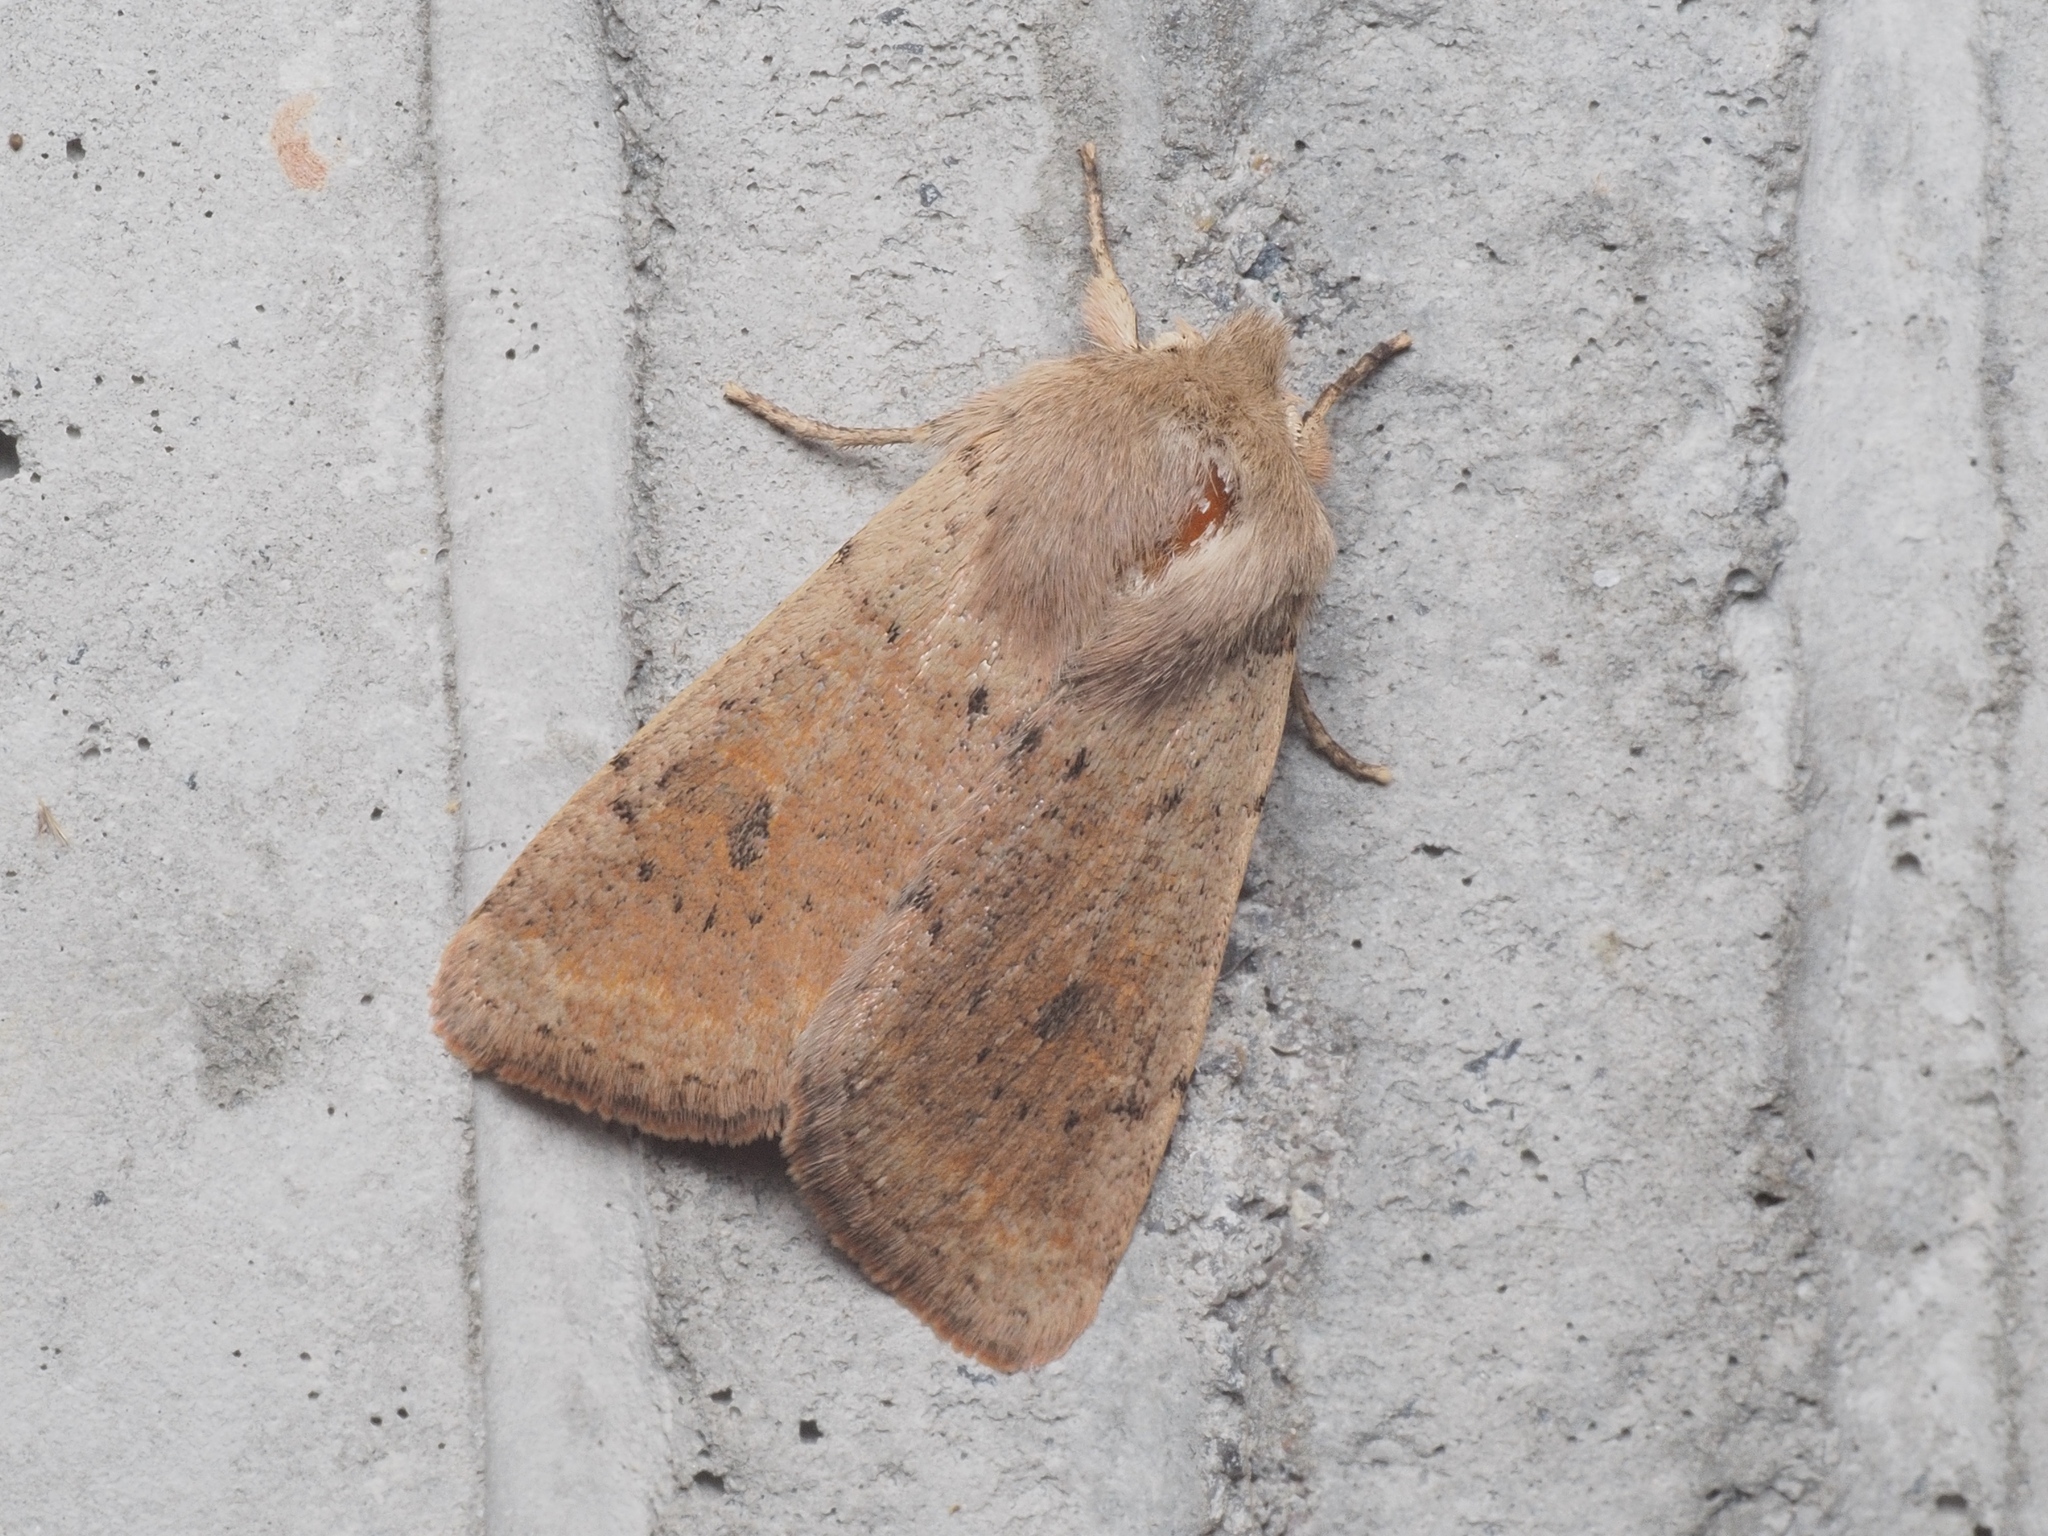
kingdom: Animalia
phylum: Arthropoda
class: Insecta
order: Lepidoptera
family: Noctuidae
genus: Orthosia
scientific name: Orthosia cruda
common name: Small quaker
